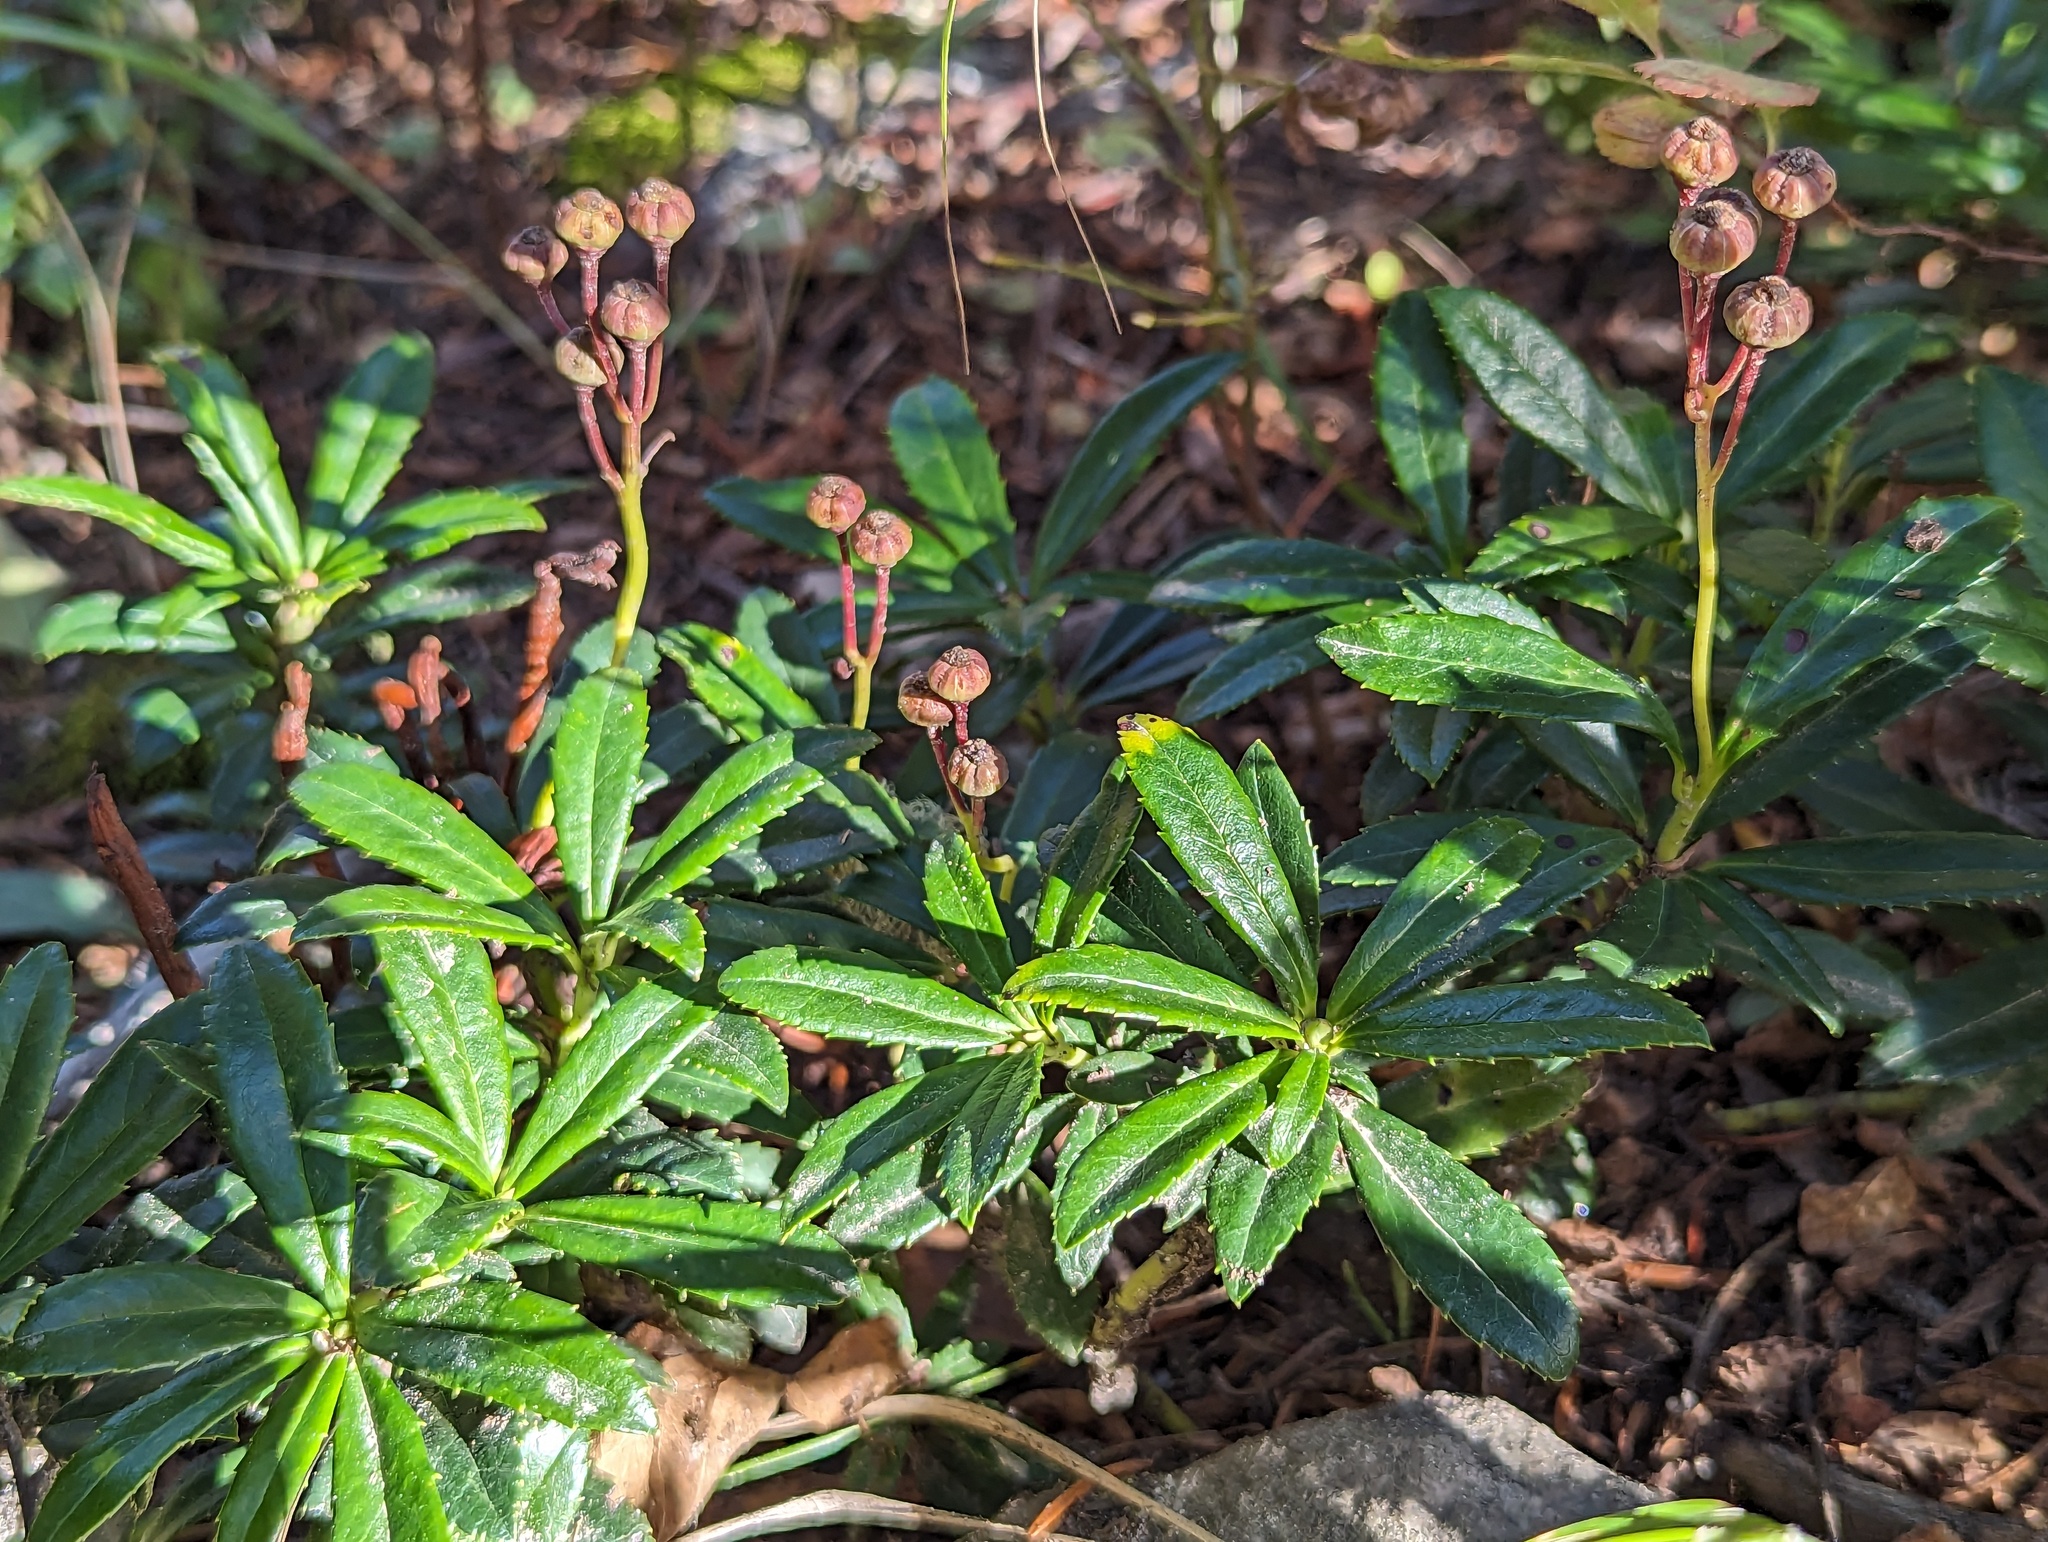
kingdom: Plantae
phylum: Tracheophyta
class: Magnoliopsida
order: Ericales
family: Ericaceae
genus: Chimaphila
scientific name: Chimaphila umbellata
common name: Pipsissewa
